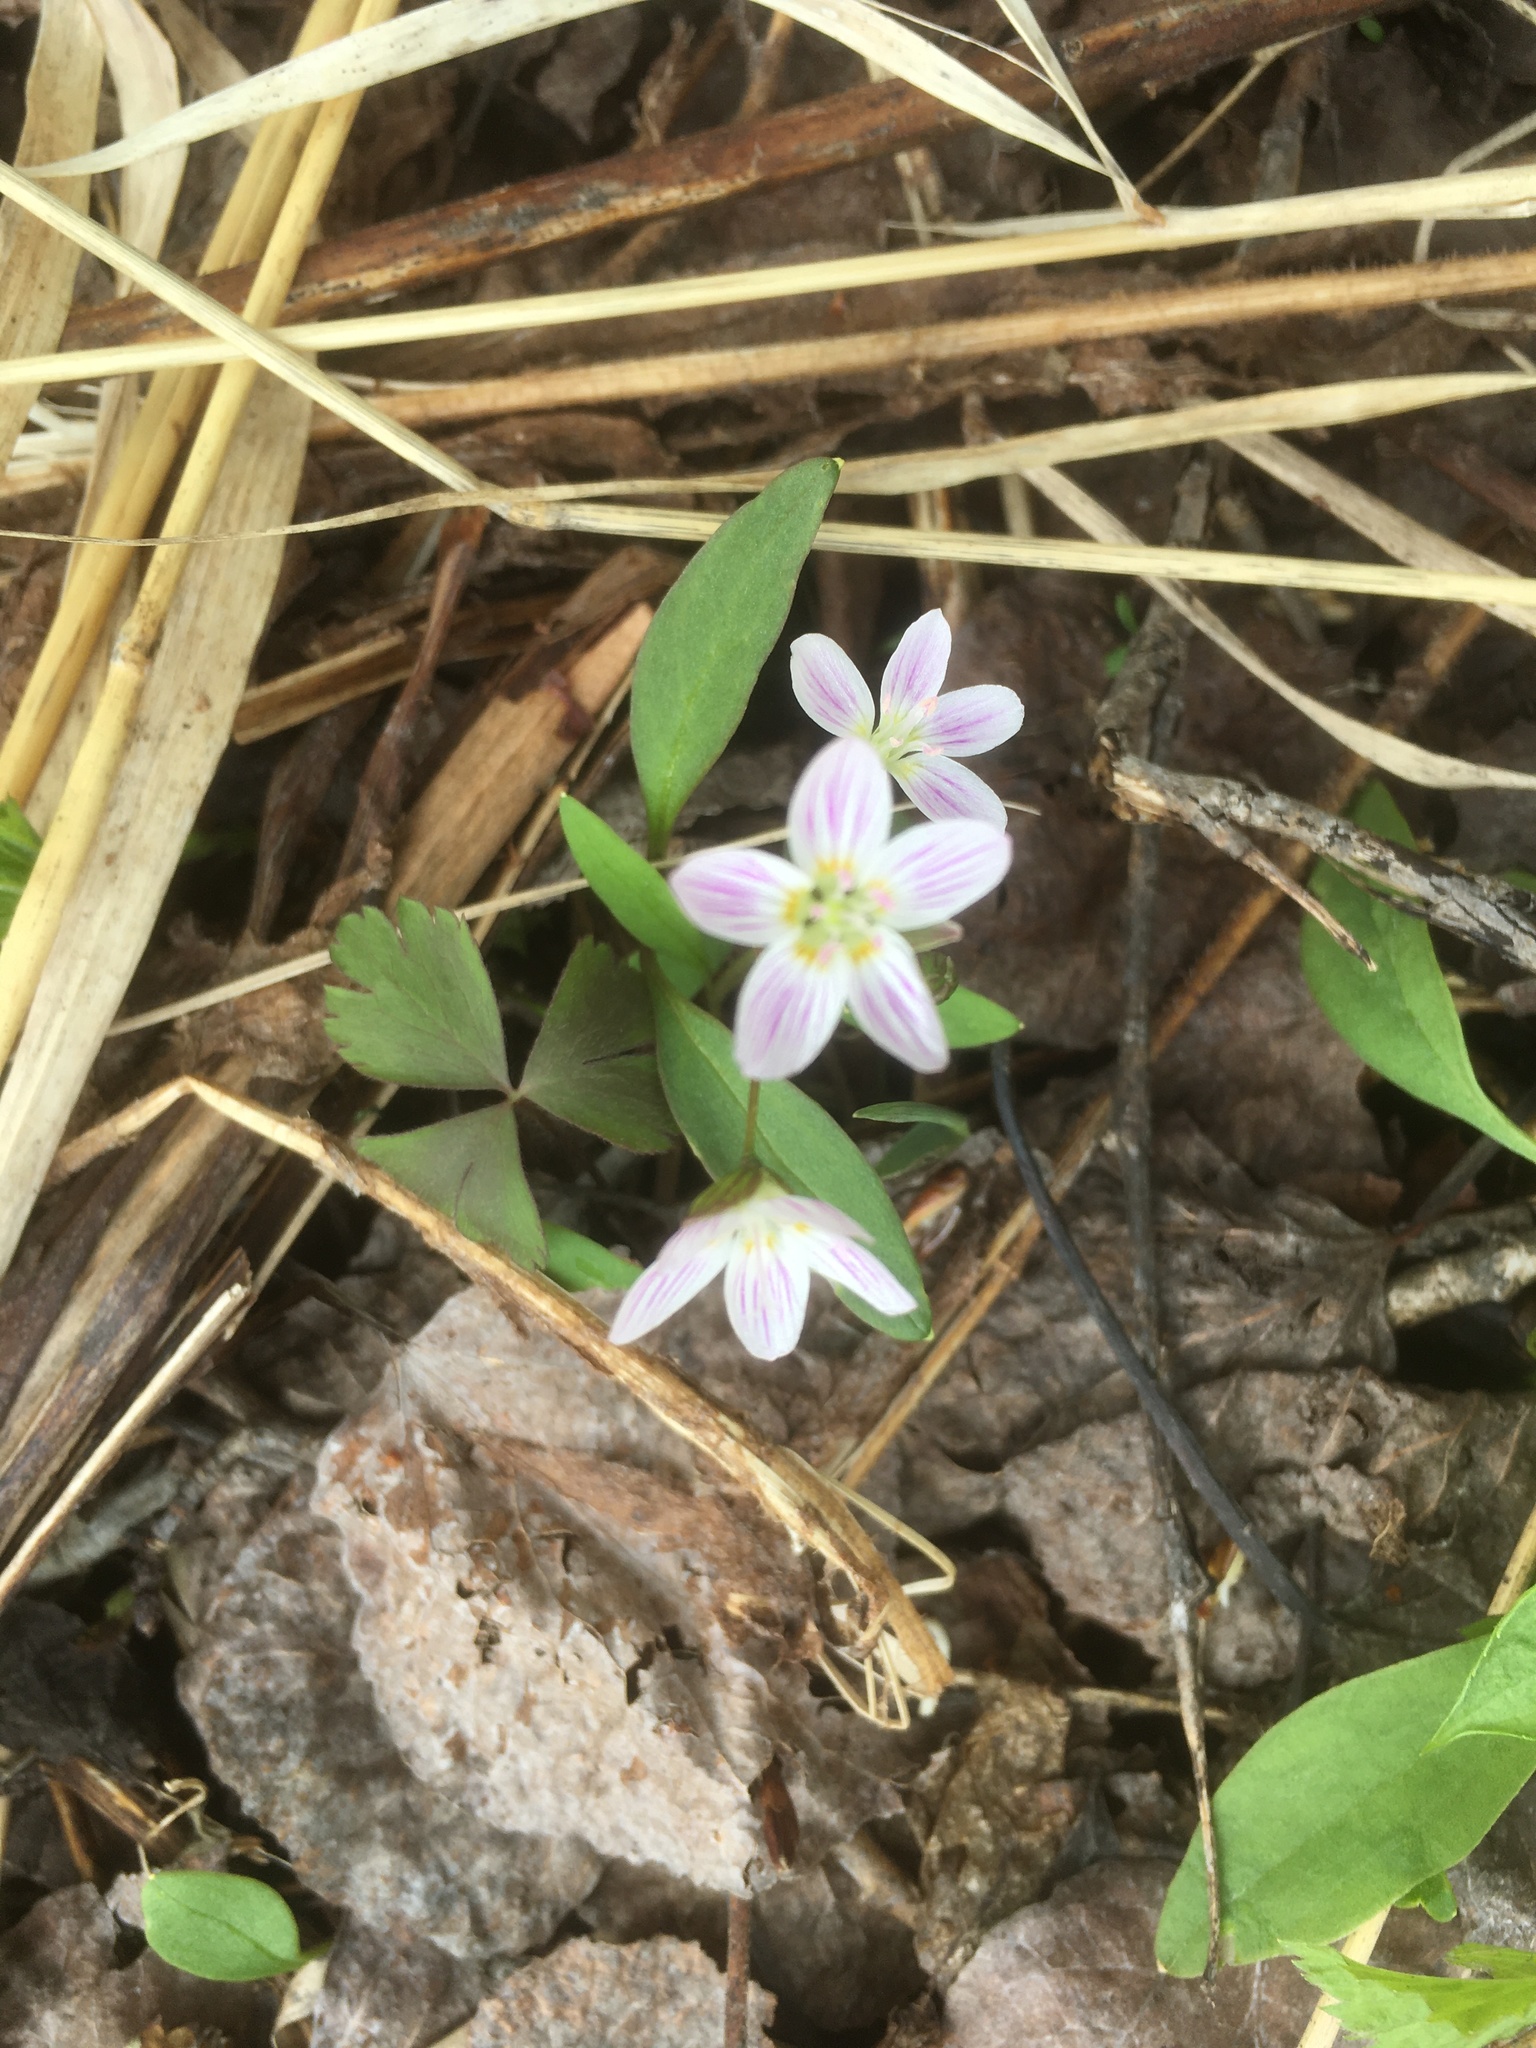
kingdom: Plantae
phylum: Tracheophyta
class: Magnoliopsida
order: Caryophyllales
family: Montiaceae
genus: Claytonia
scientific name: Claytonia caroliniana
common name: Carolina spring beauty
